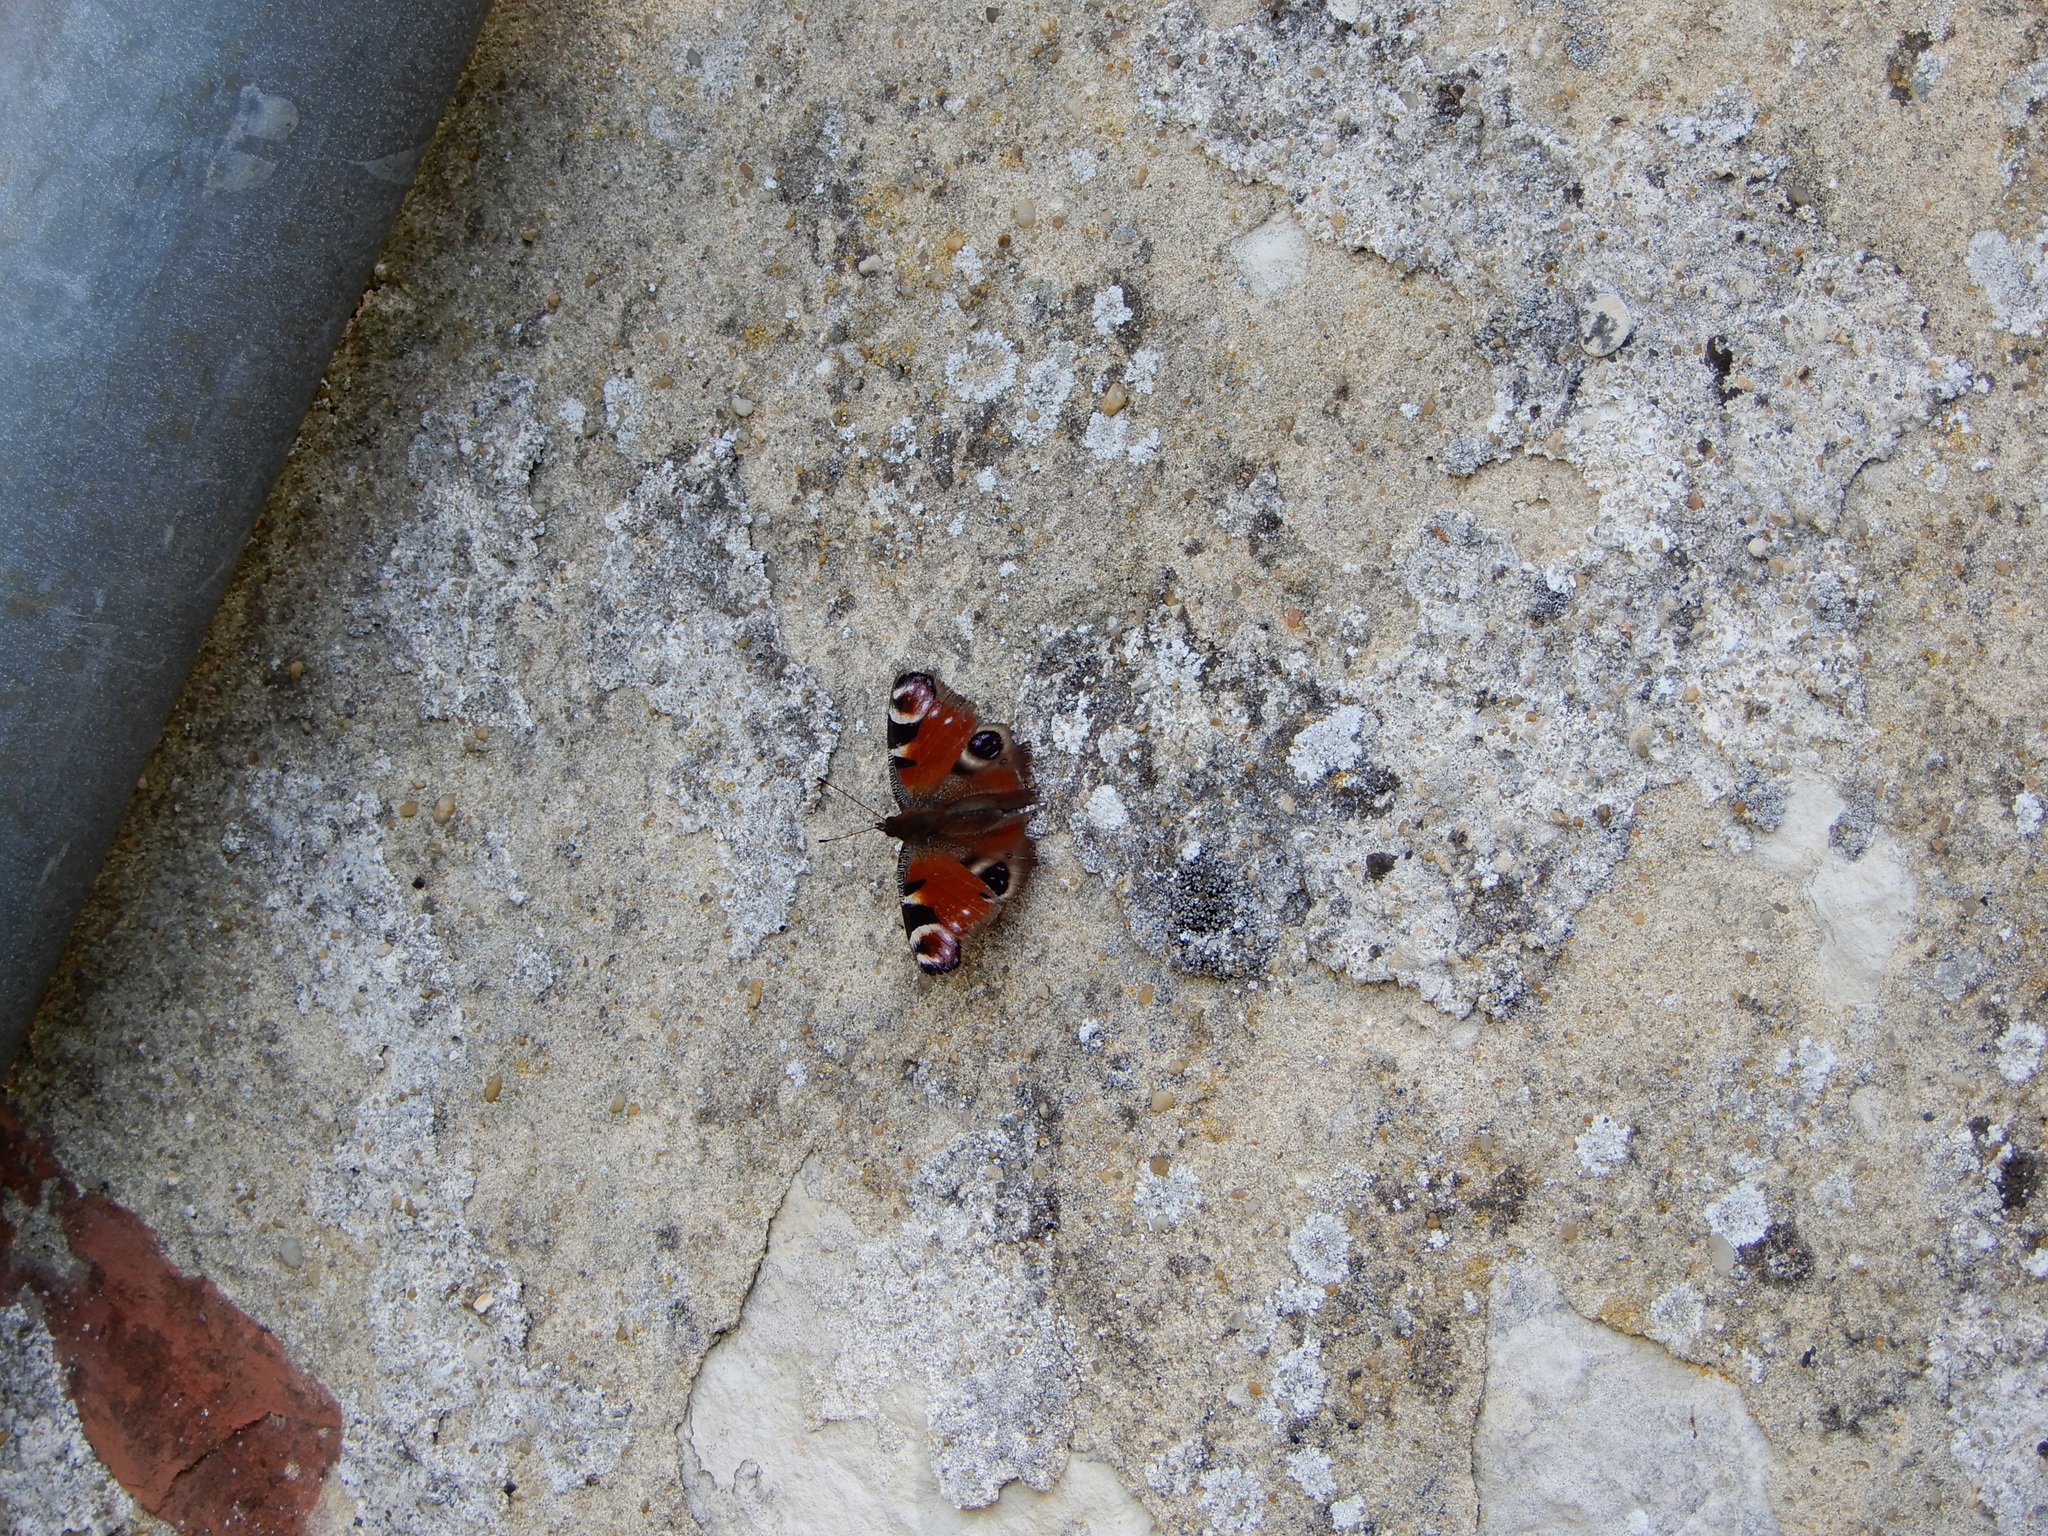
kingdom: Animalia
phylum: Arthropoda
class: Insecta
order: Lepidoptera
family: Nymphalidae
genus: Aglais
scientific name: Aglais io
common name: Peacock
